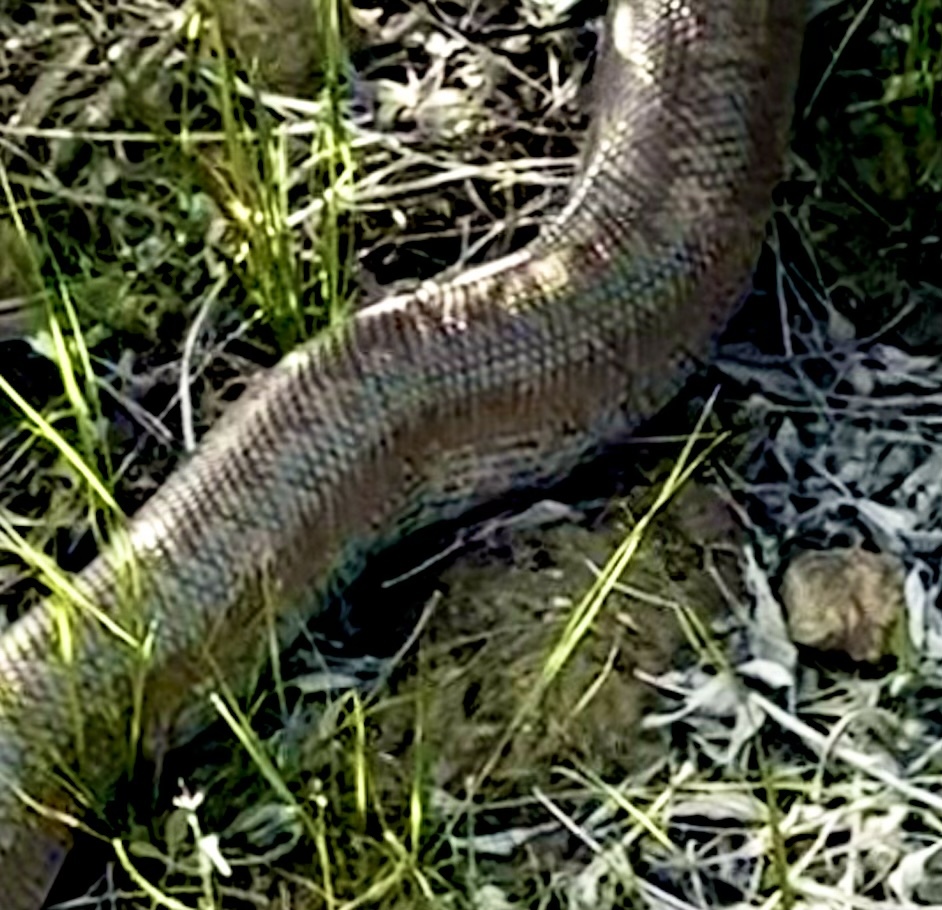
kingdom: Animalia
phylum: Chordata
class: Squamata
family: Boidae
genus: Lichanura
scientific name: Lichanura orcutti
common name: Northern three-lined boa
